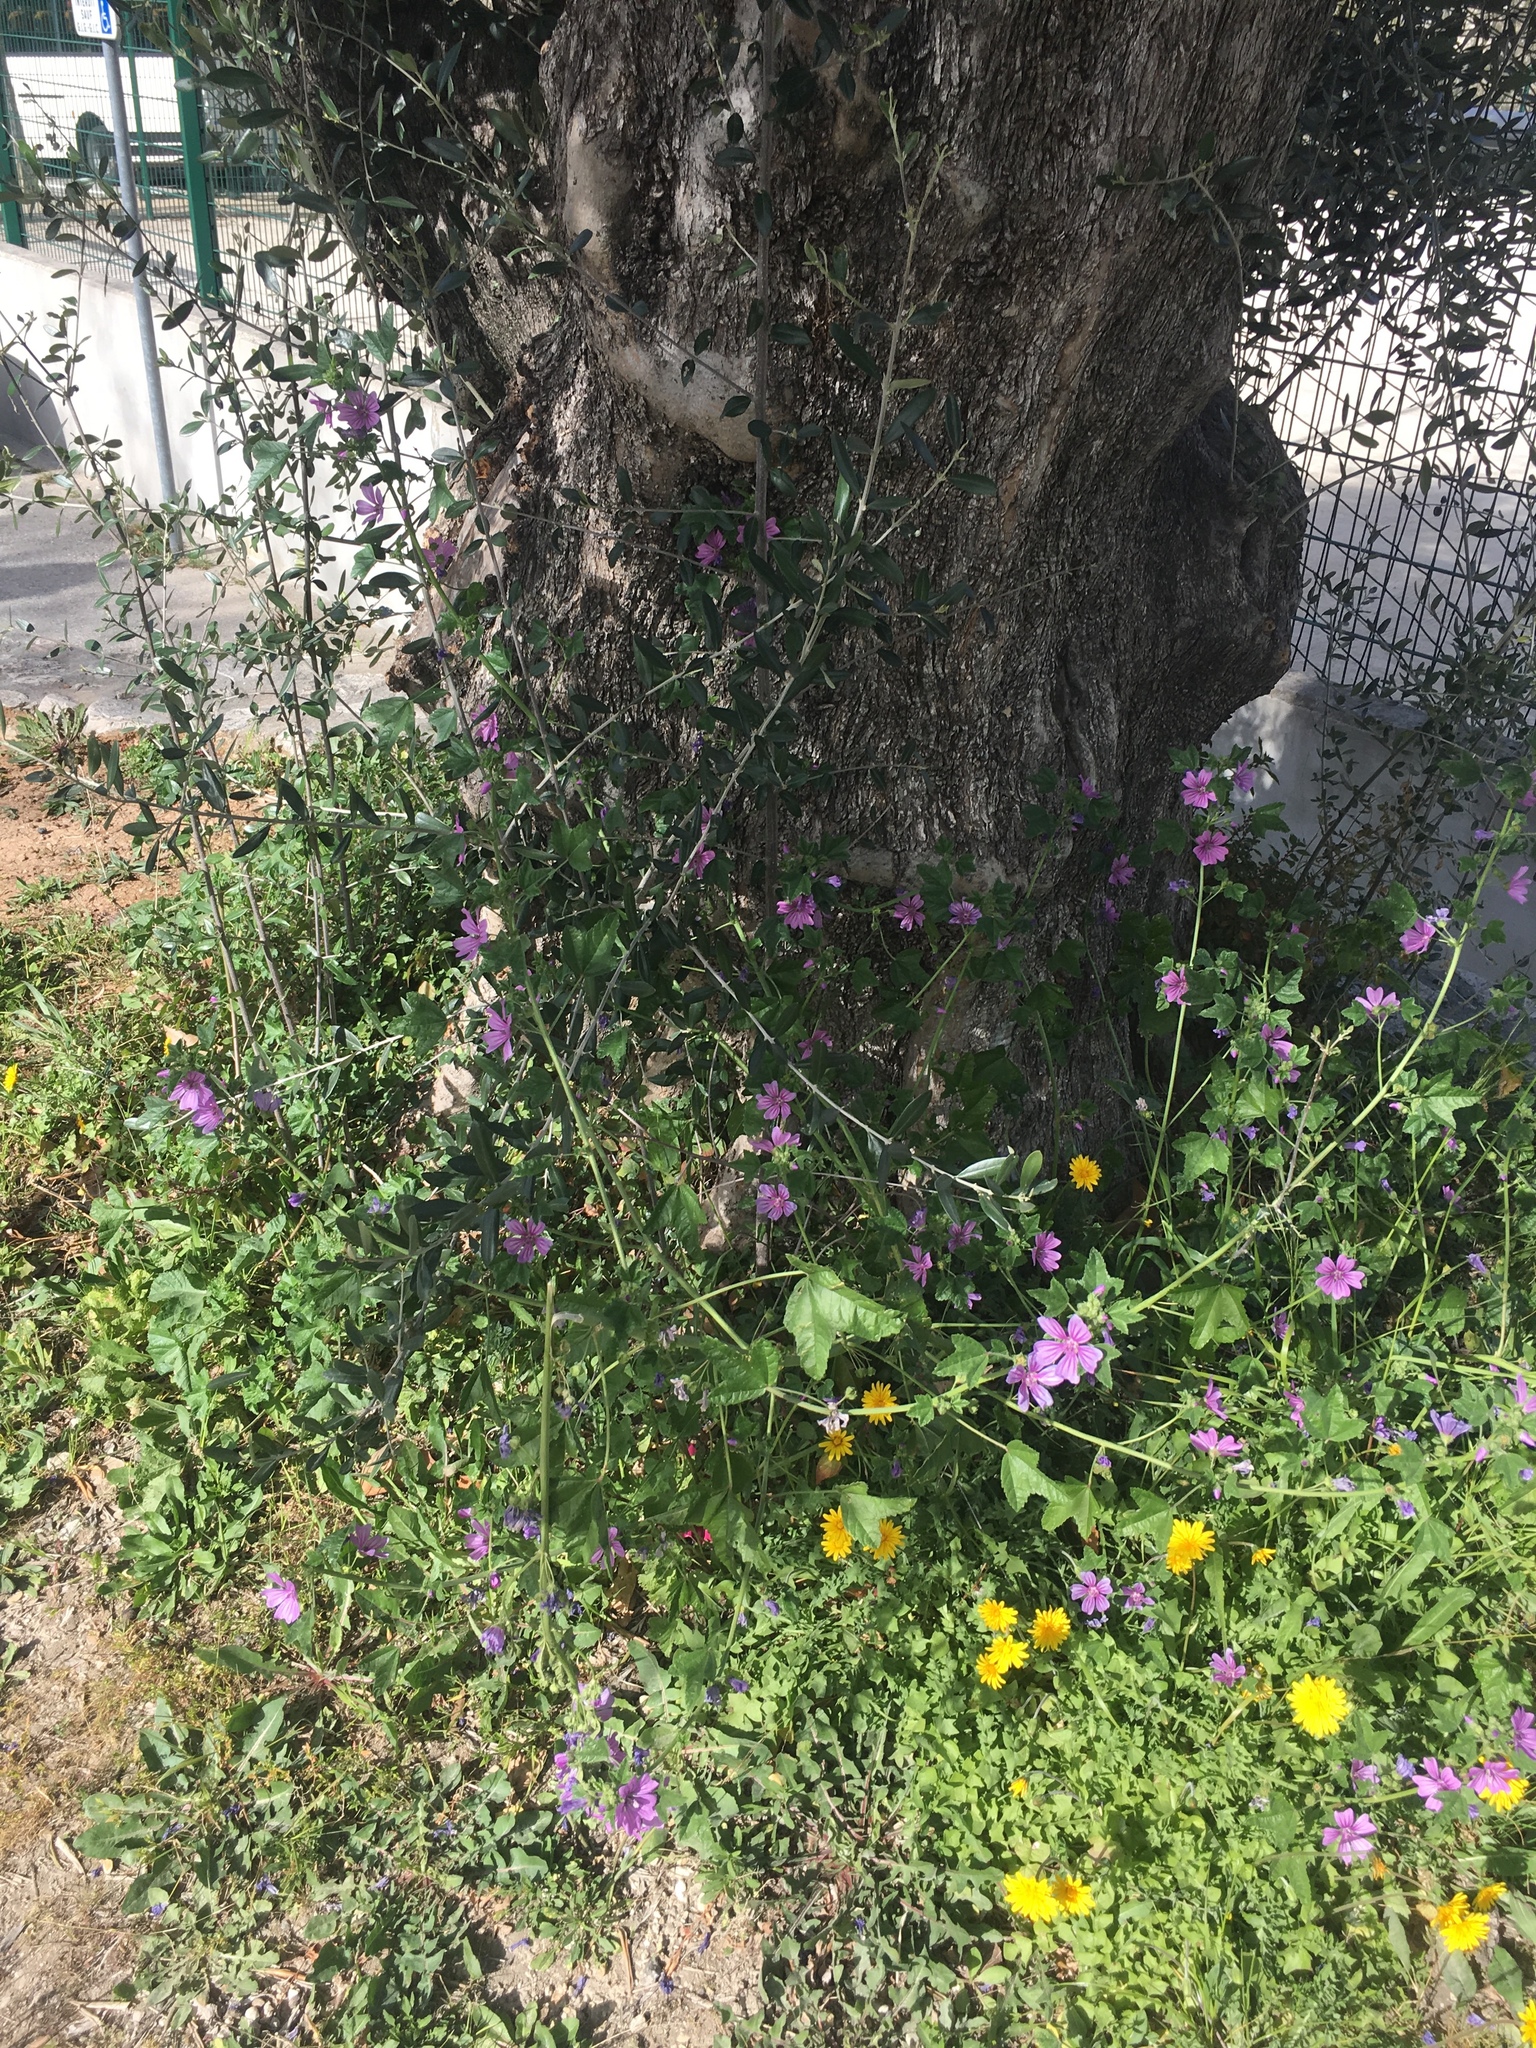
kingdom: Plantae
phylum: Tracheophyta
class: Magnoliopsida
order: Malvales
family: Malvaceae
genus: Malva
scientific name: Malva sylvestris
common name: Common mallow
